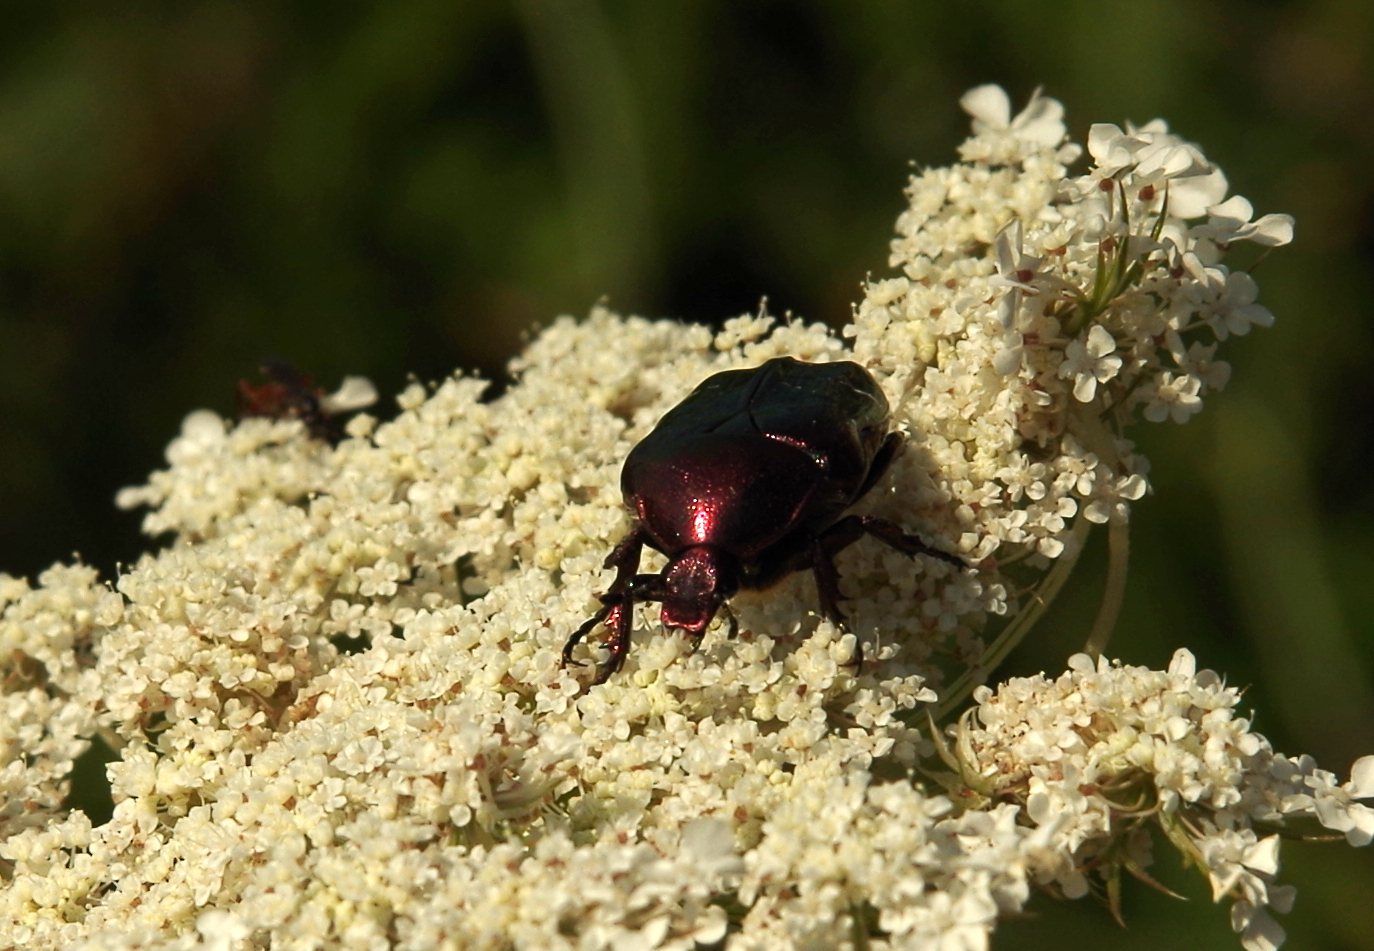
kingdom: Animalia
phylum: Arthropoda
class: Insecta
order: Coleoptera
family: Scarabaeidae
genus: Cetonia
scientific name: Cetonia aurata
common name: Rose chafer
